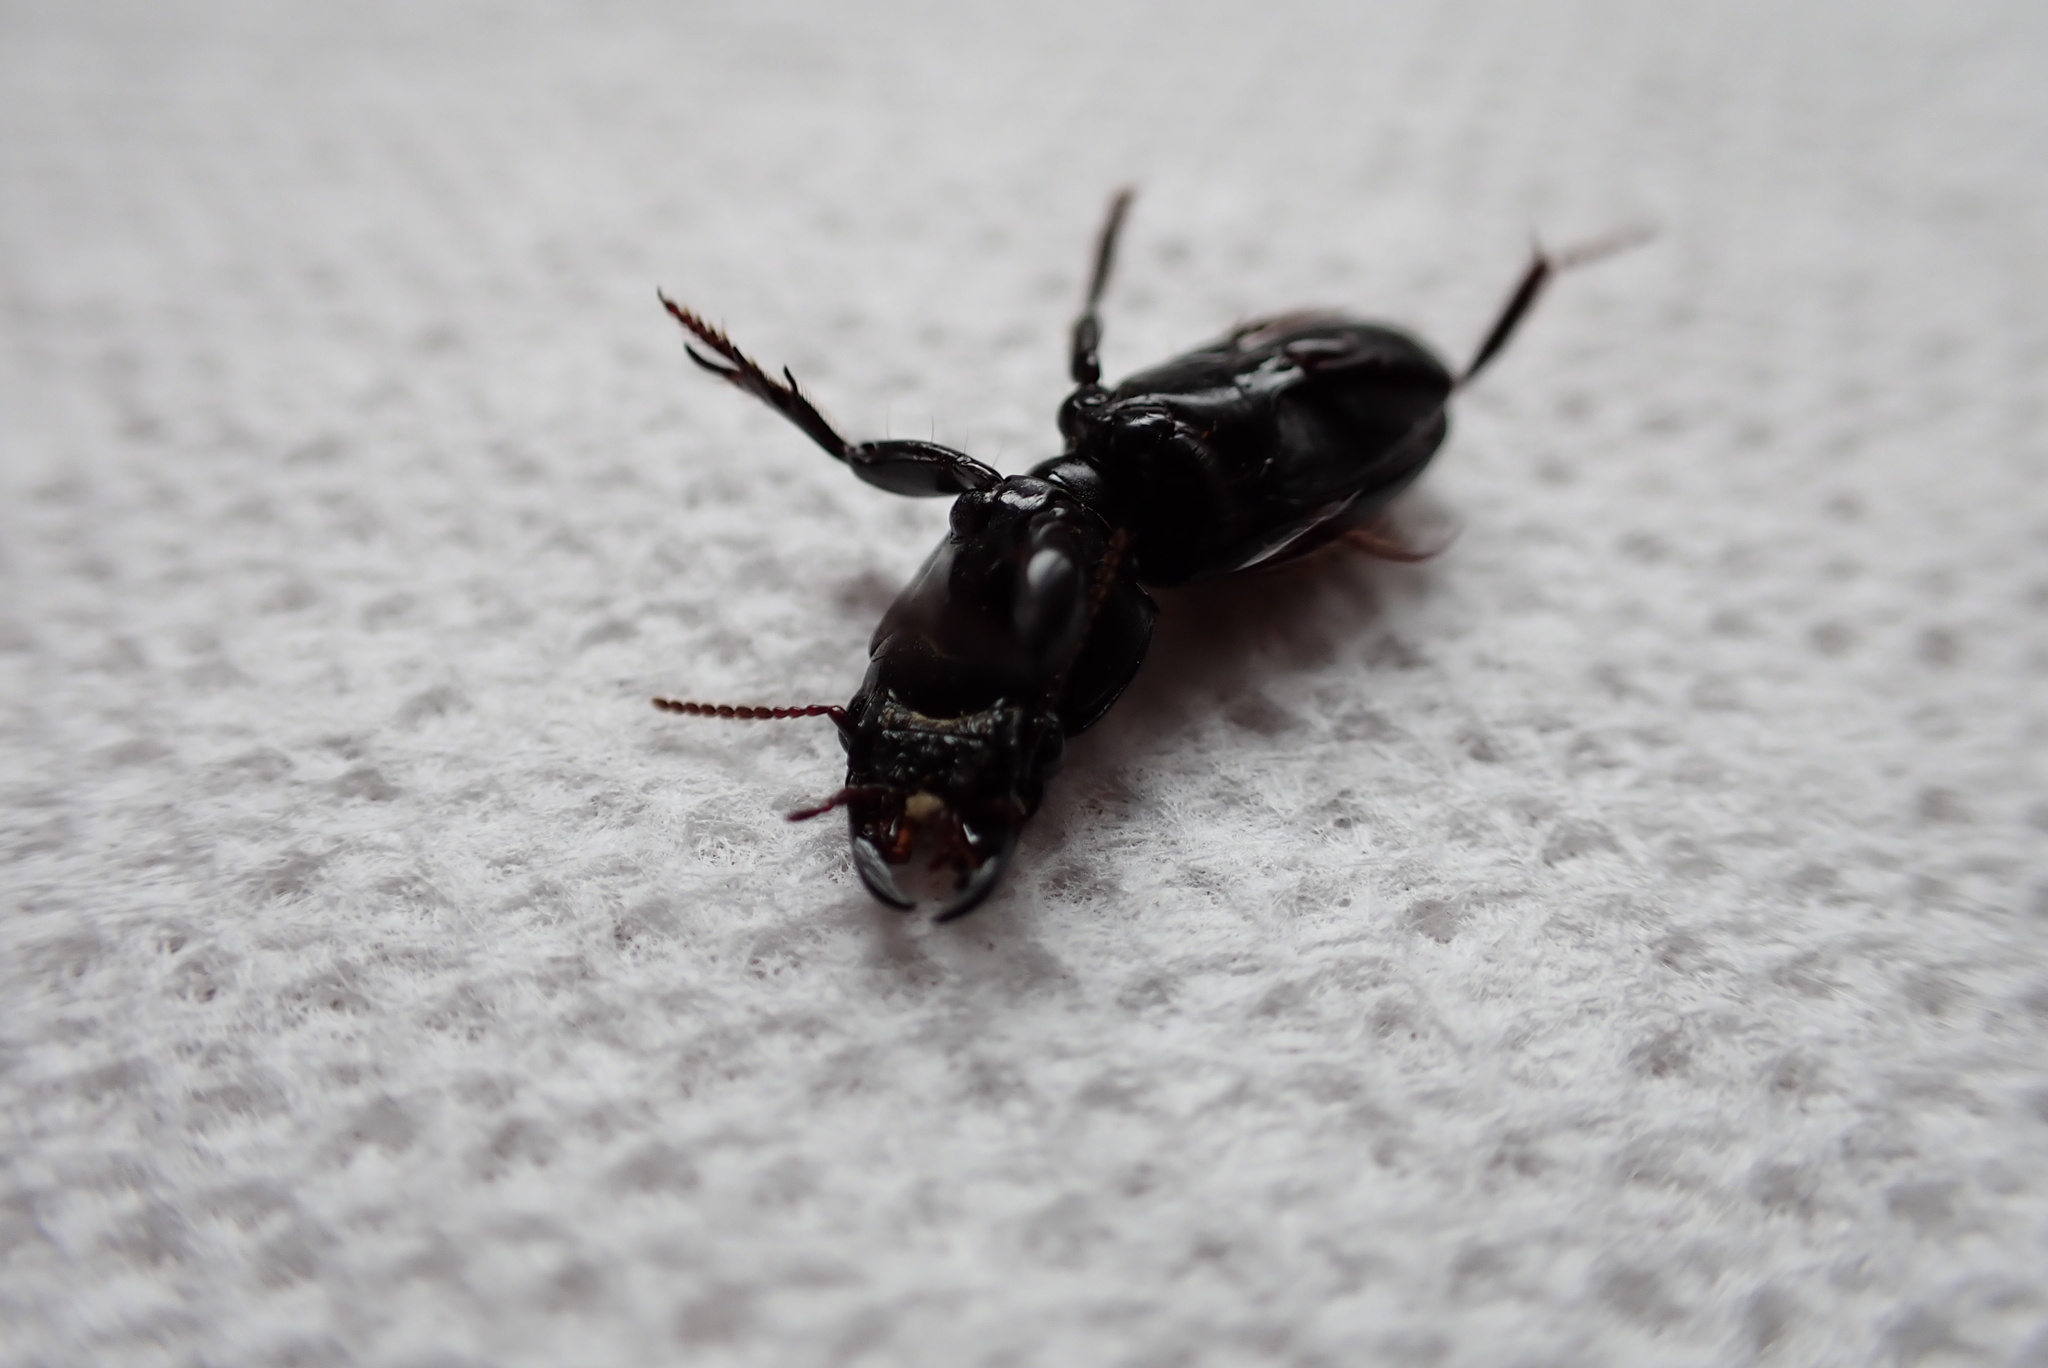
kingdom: Animalia
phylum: Arthropoda
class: Insecta
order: Coleoptera
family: Carabidae
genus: Scarites
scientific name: Scarites subterraneus
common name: Big-headed ground beetle
